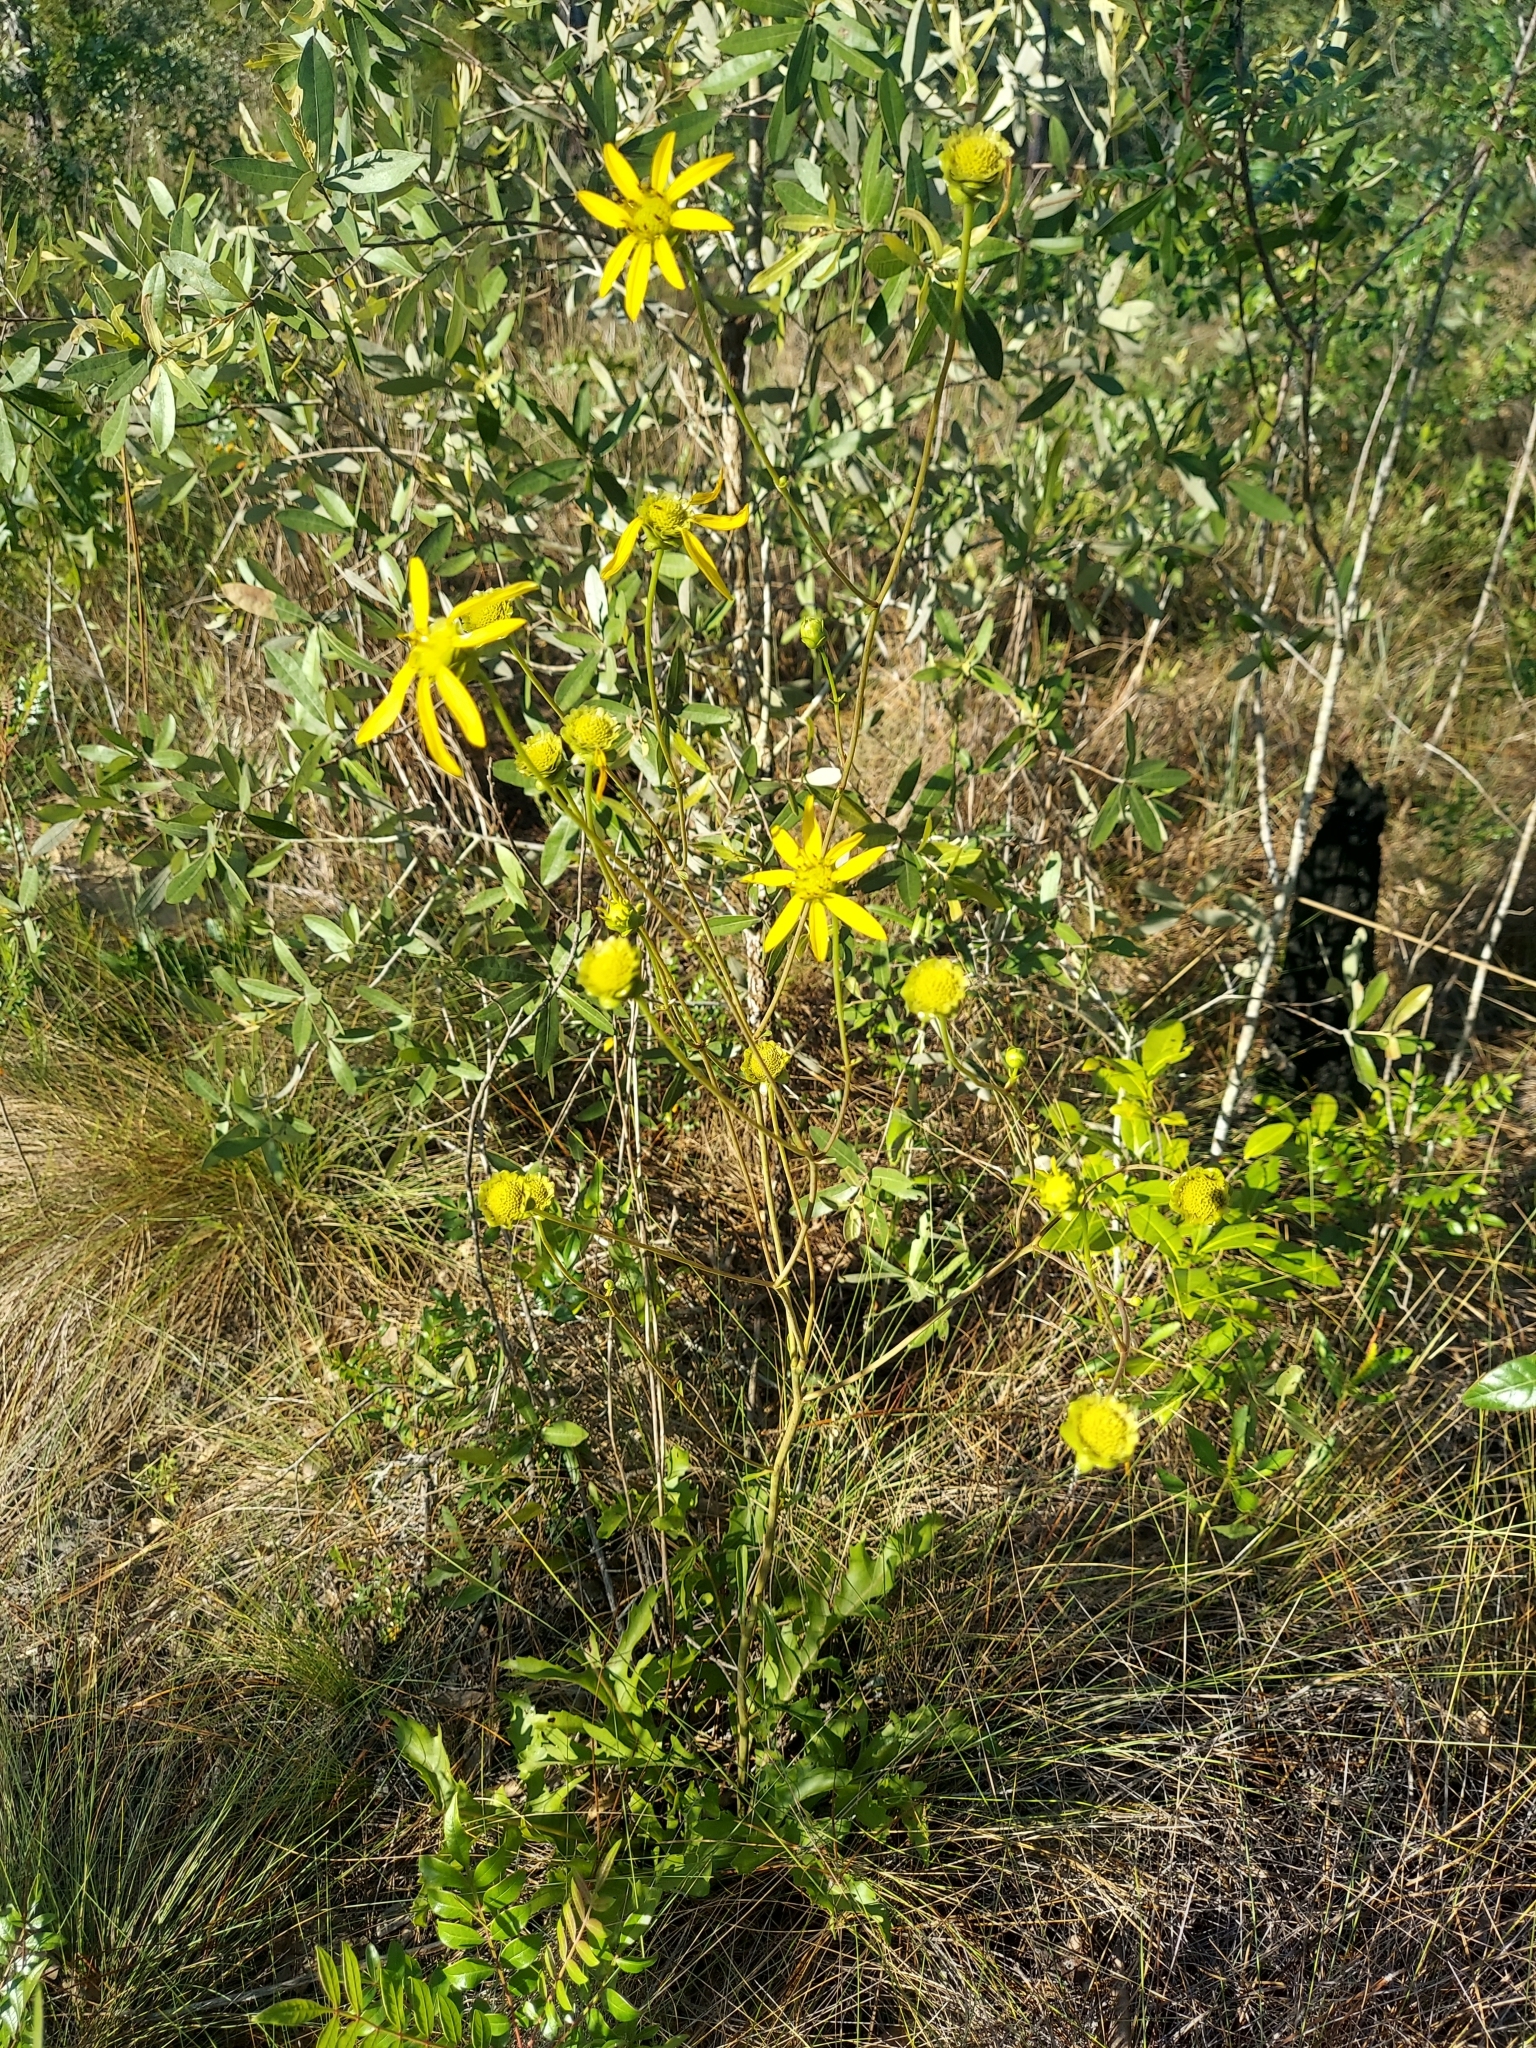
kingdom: Plantae
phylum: Tracheophyta
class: Magnoliopsida
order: Asterales
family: Asteraceae
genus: Silphium
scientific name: Silphium compositum
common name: Lesser basal-leaf rosinweed
